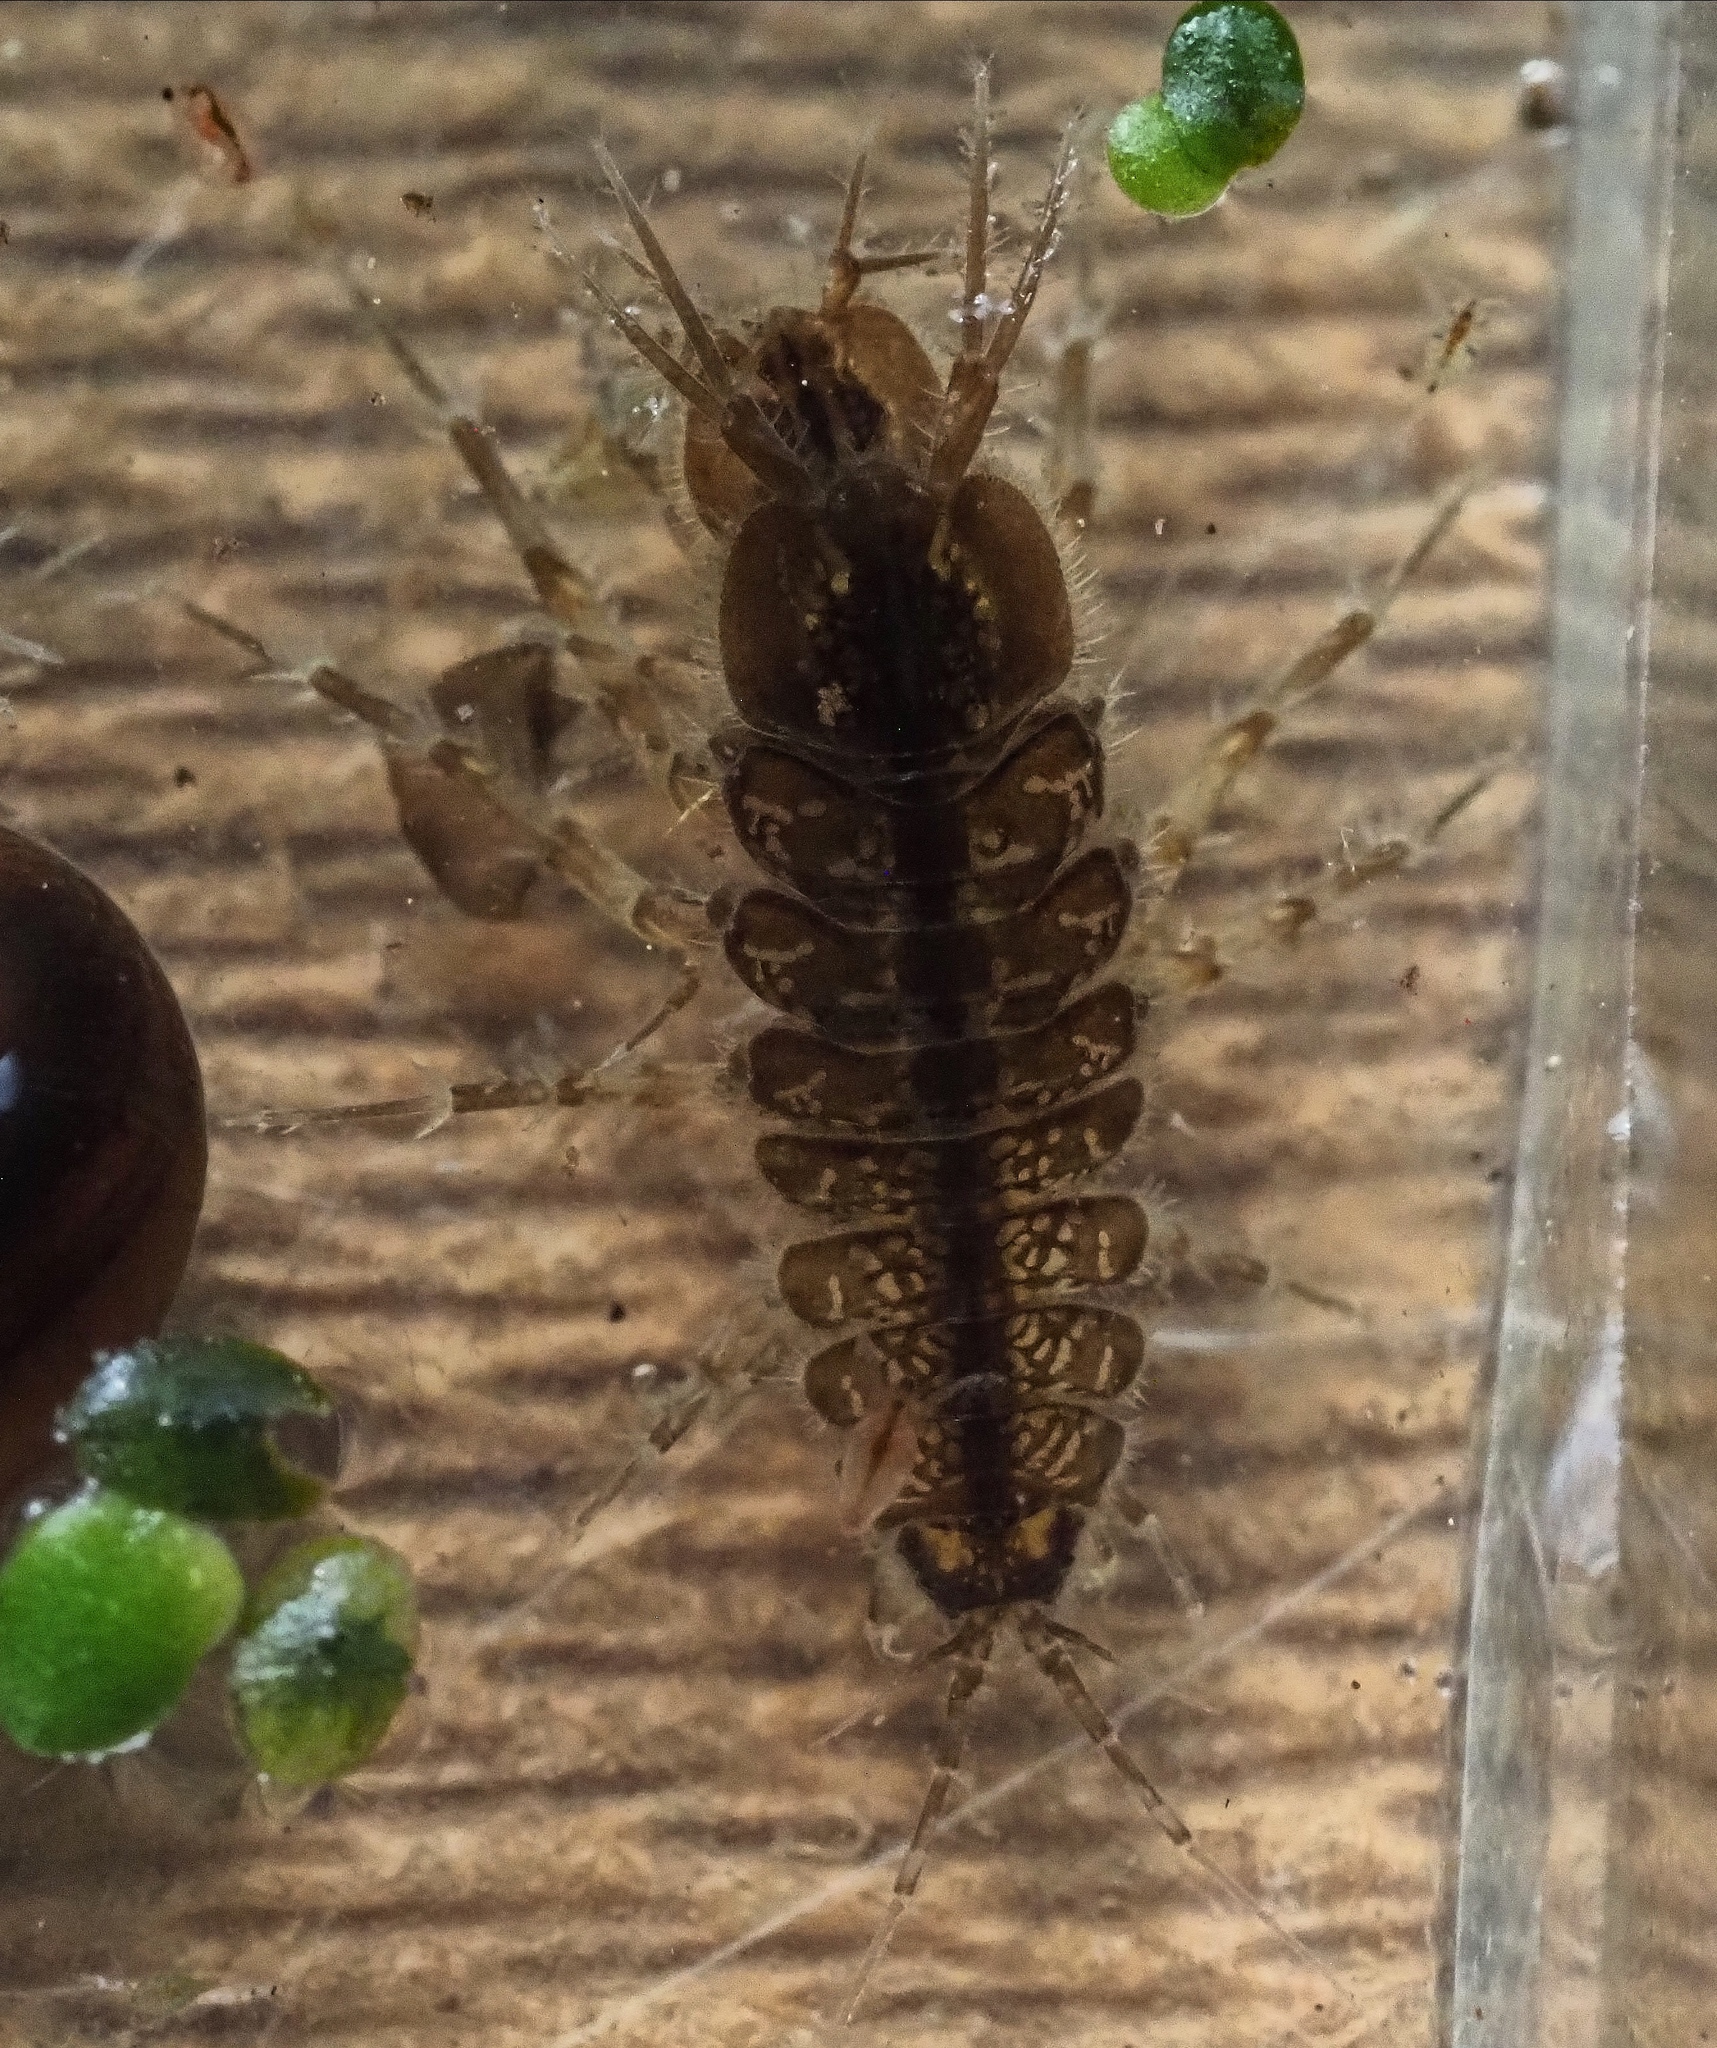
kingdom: Animalia
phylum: Arthropoda
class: Malacostraca
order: Isopoda
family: Asellidae
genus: Asellus
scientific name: Asellus aquaticus
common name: Water hog lice/slaters
